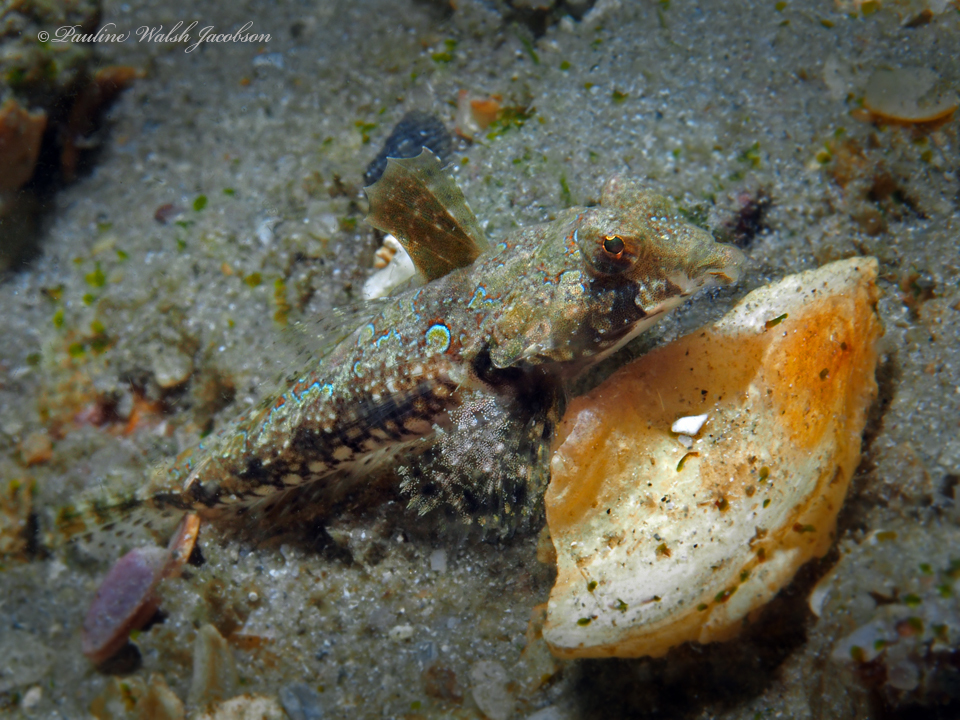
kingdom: Animalia
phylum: Chordata
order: Perciformes
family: Callionymidae
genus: Callionymus
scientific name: Callionymus bairdi
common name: Lancer dragonet
